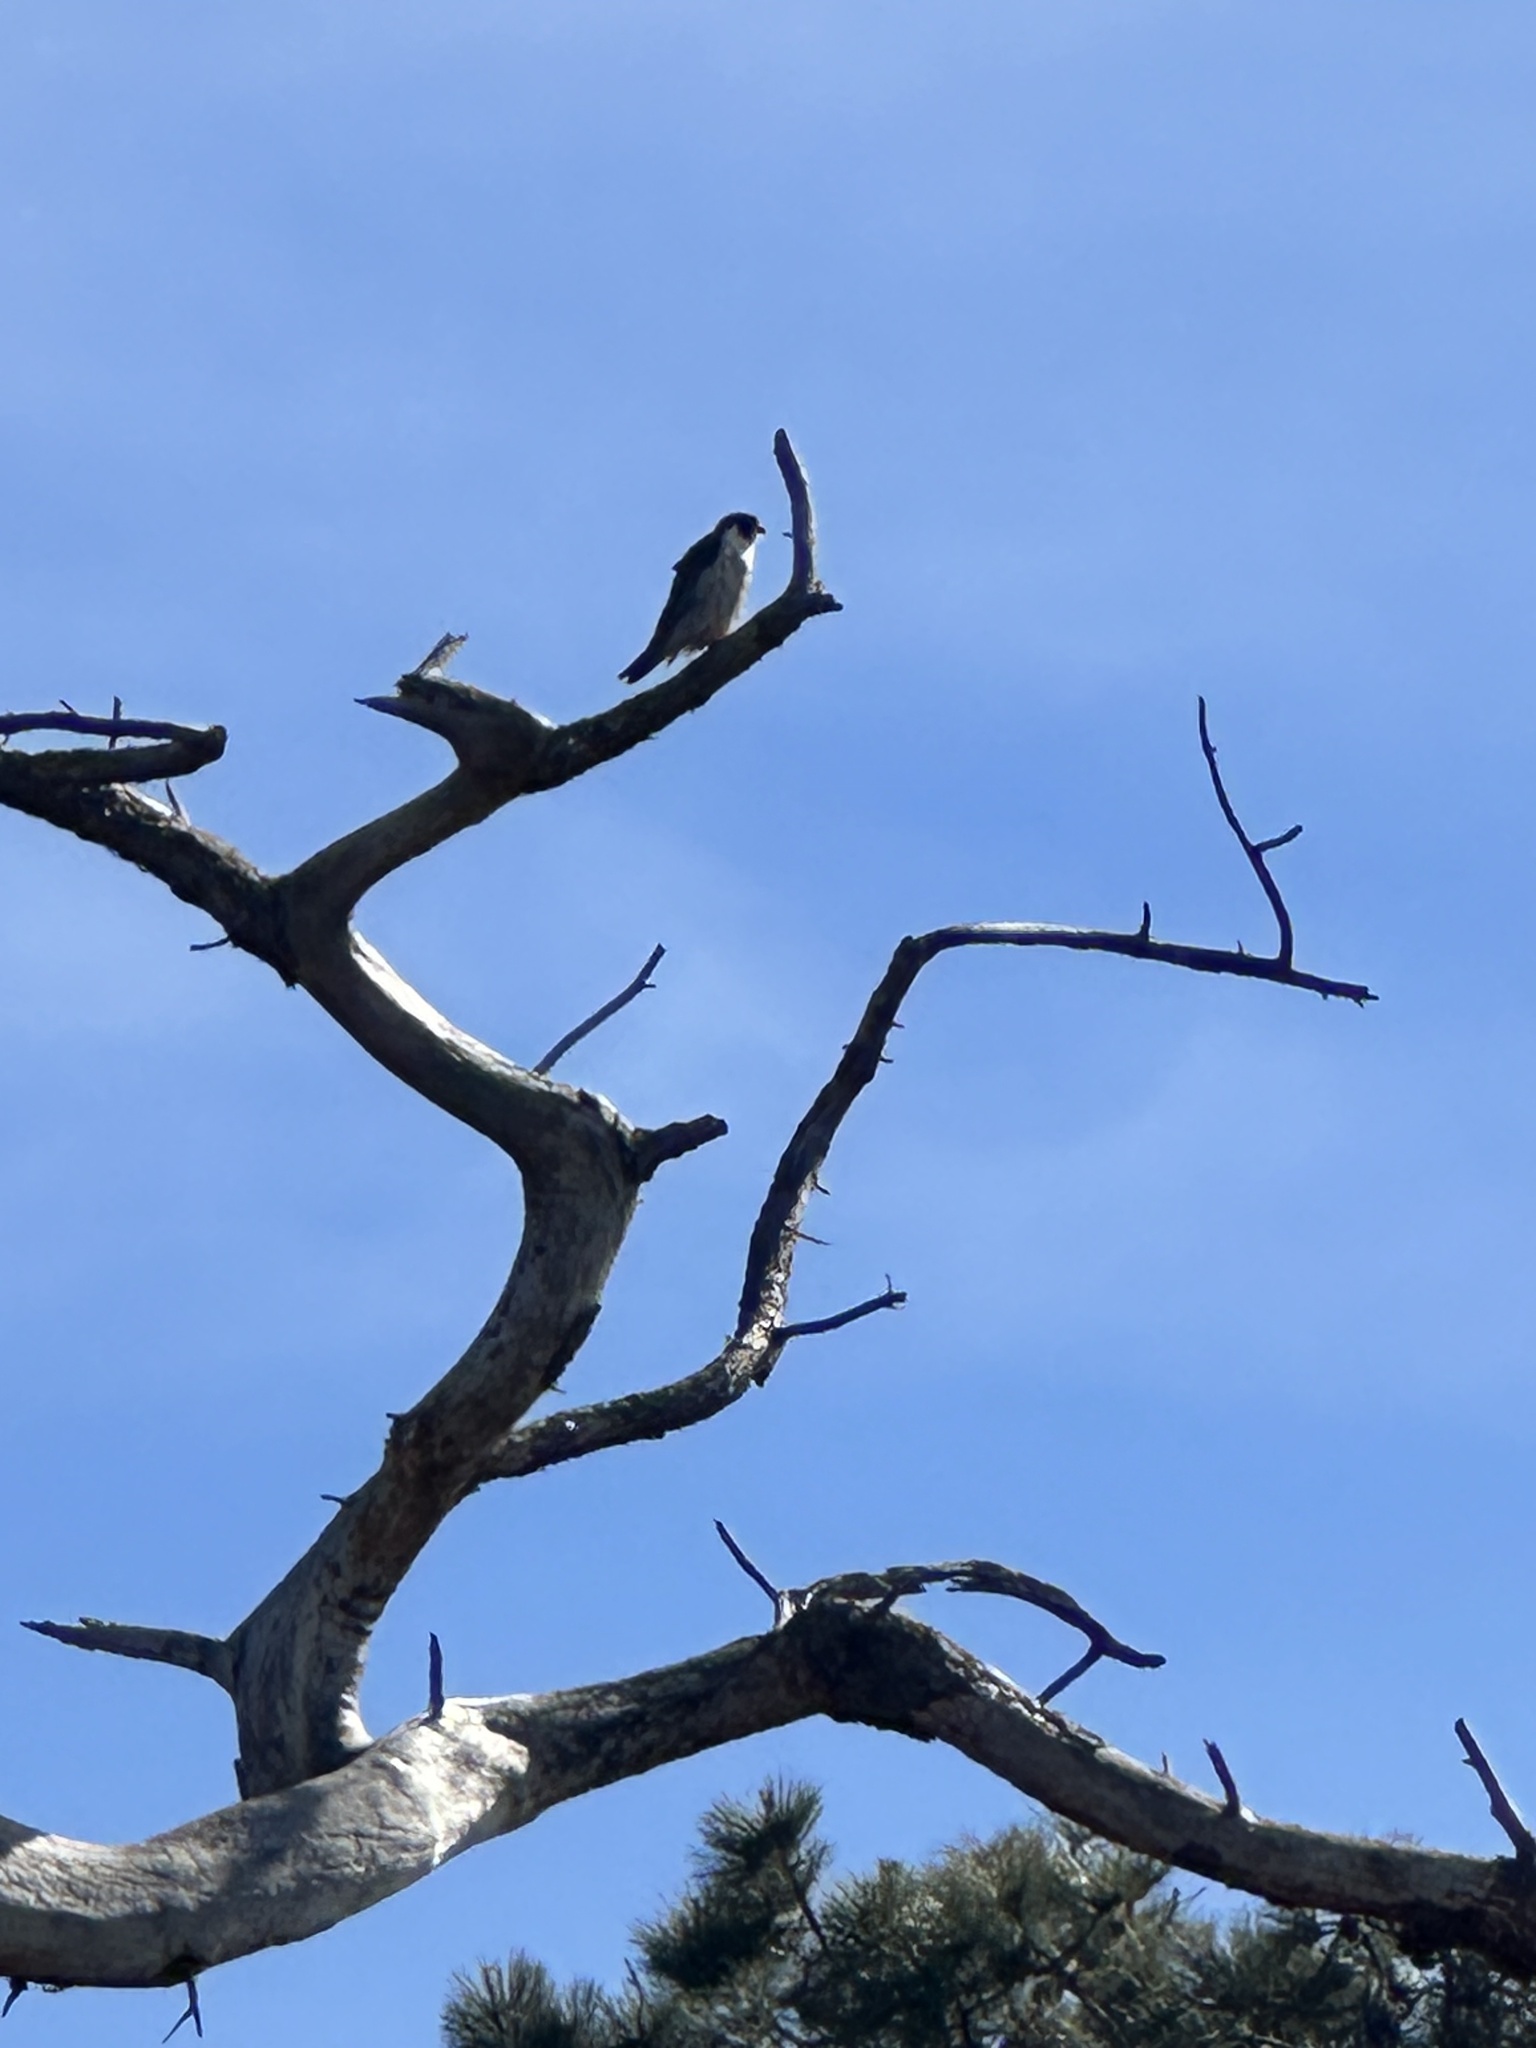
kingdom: Animalia
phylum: Chordata
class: Aves
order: Falconiformes
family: Falconidae
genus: Falco
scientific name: Falco peregrinus
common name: Peregrine falcon
